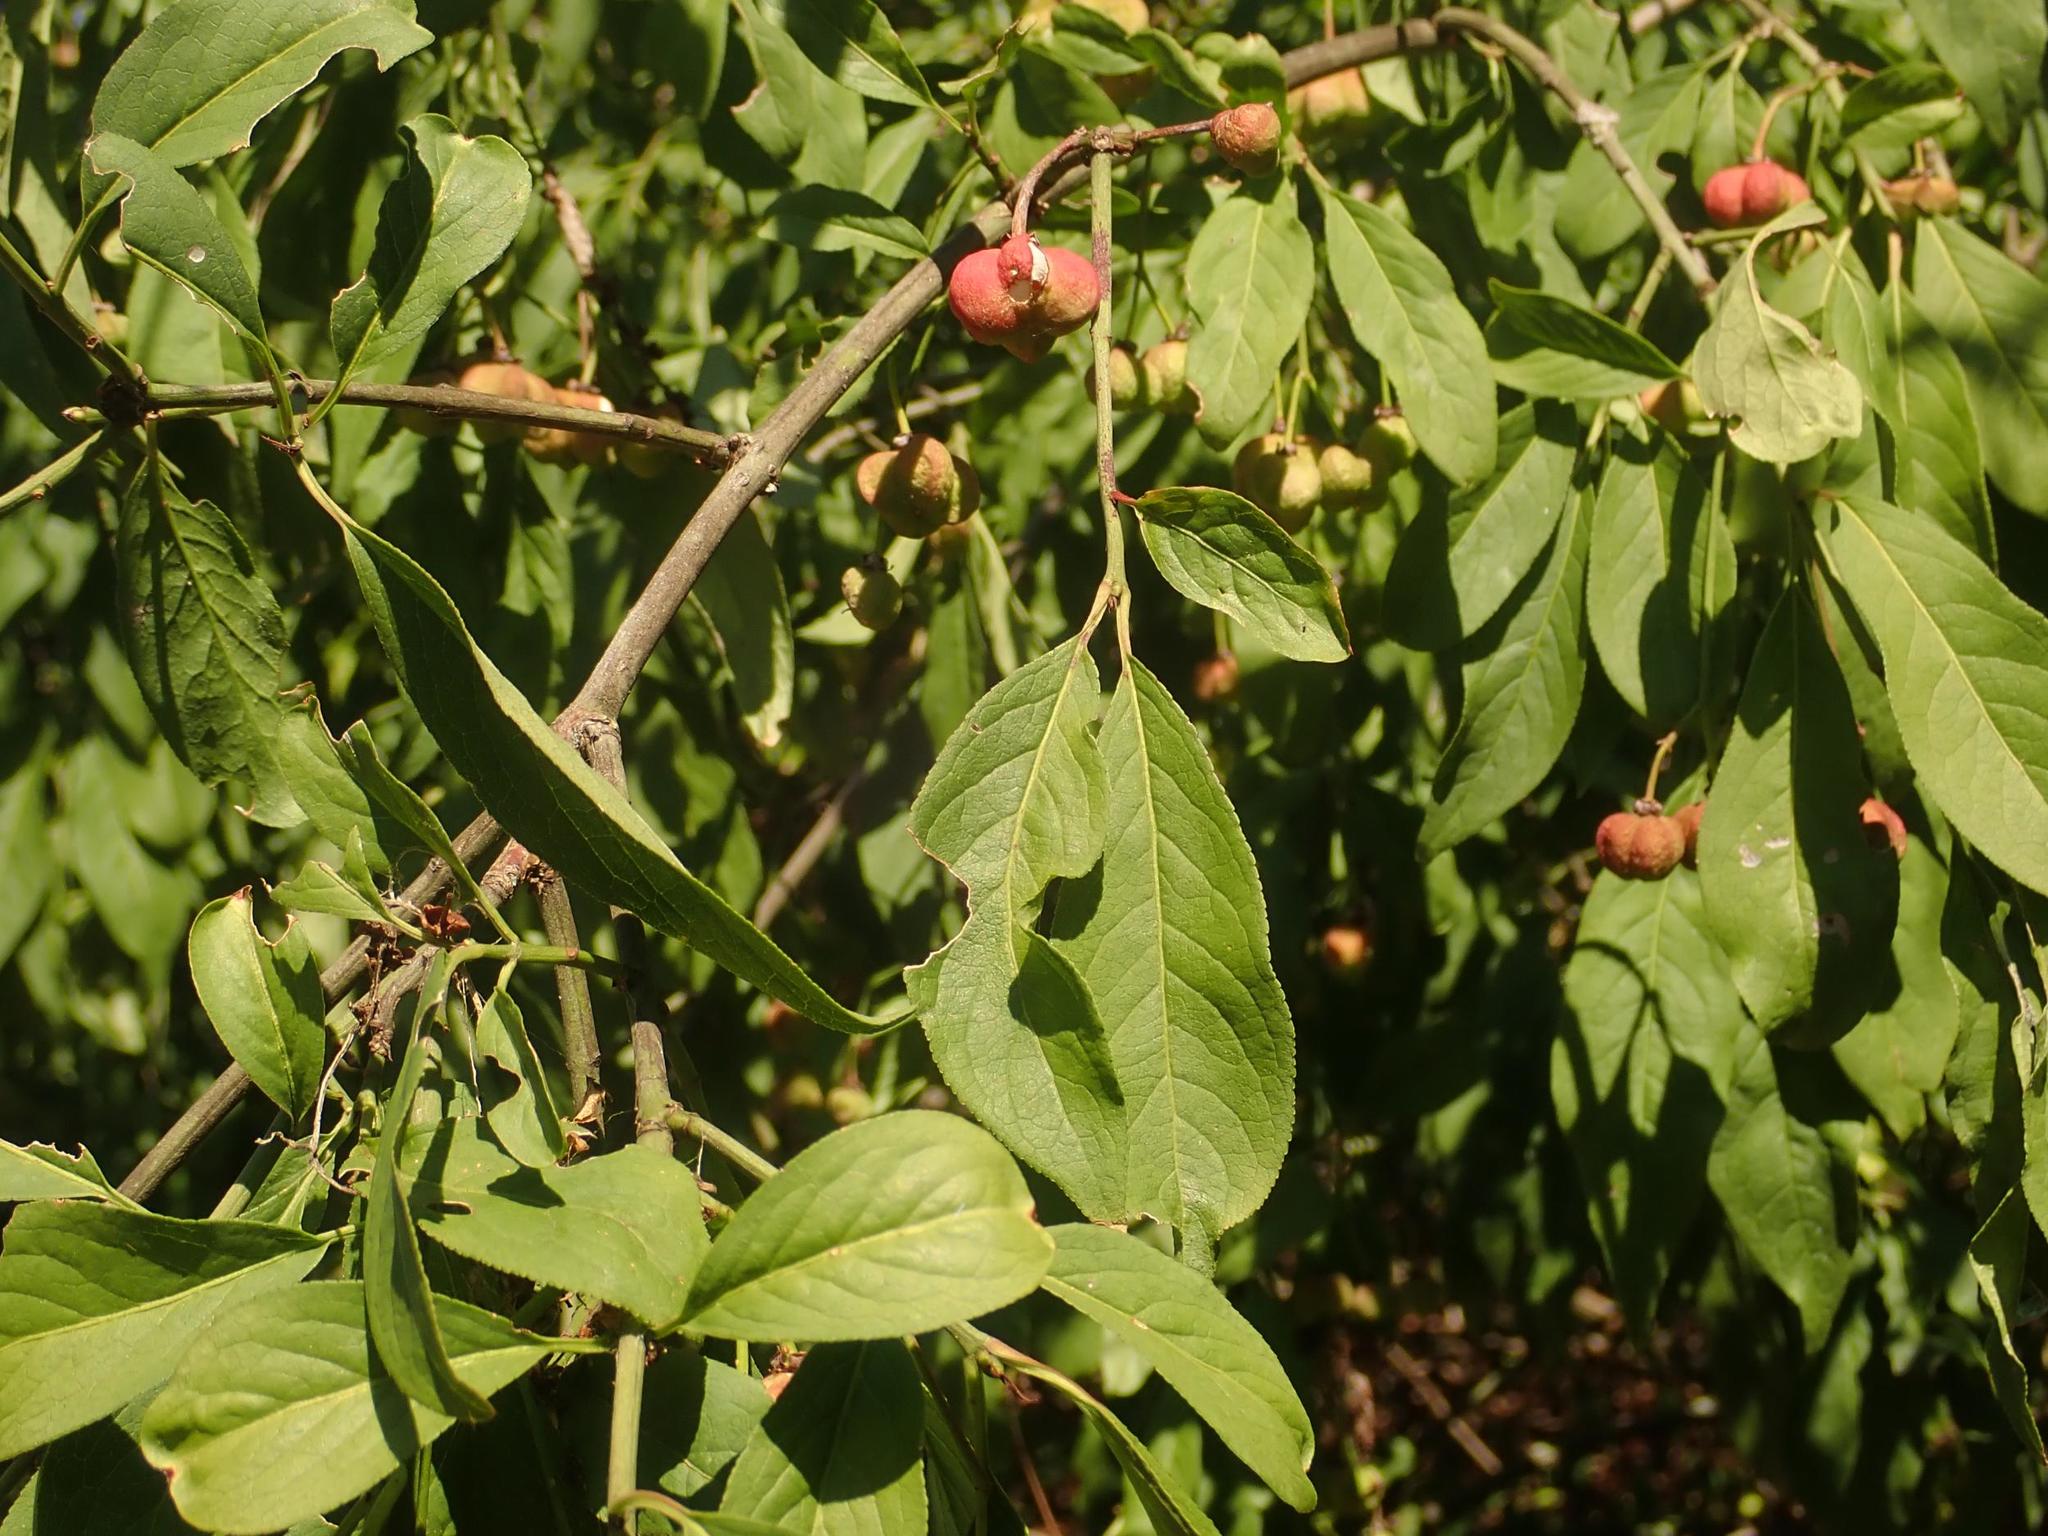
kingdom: Plantae
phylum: Tracheophyta
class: Magnoliopsida
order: Celastrales
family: Celastraceae
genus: Euonymus
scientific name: Euonymus europaeus
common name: Spindle
